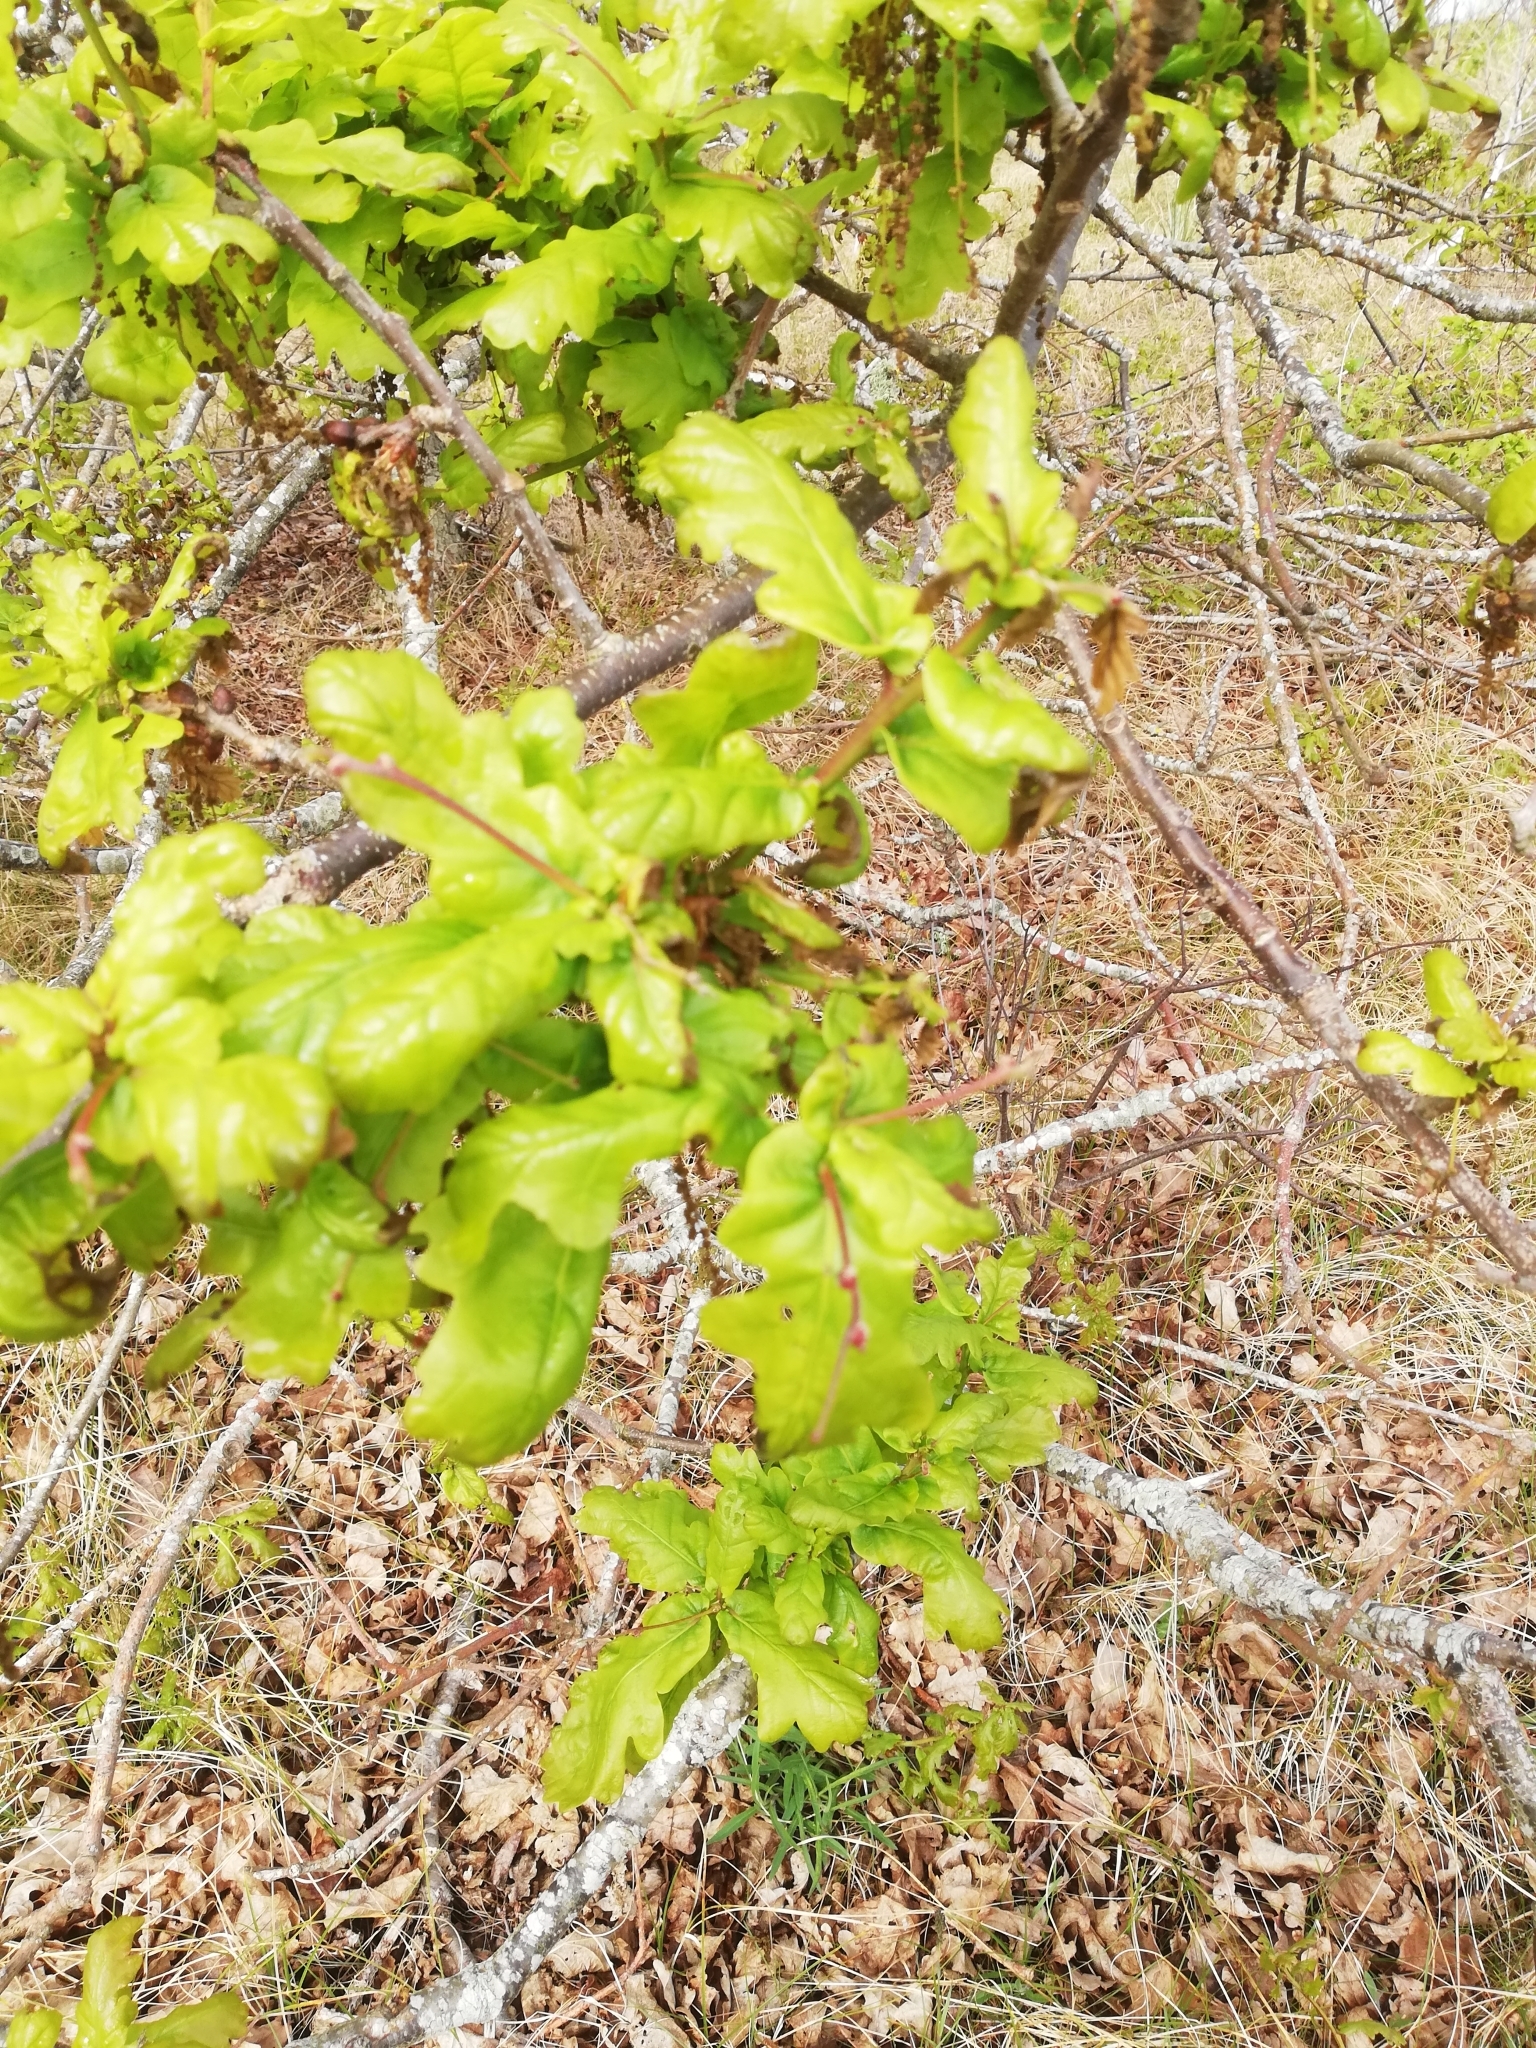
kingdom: Plantae
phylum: Tracheophyta
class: Magnoliopsida
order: Fagales
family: Fagaceae
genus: Quercus
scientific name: Quercus robur
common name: Pedunculate oak
